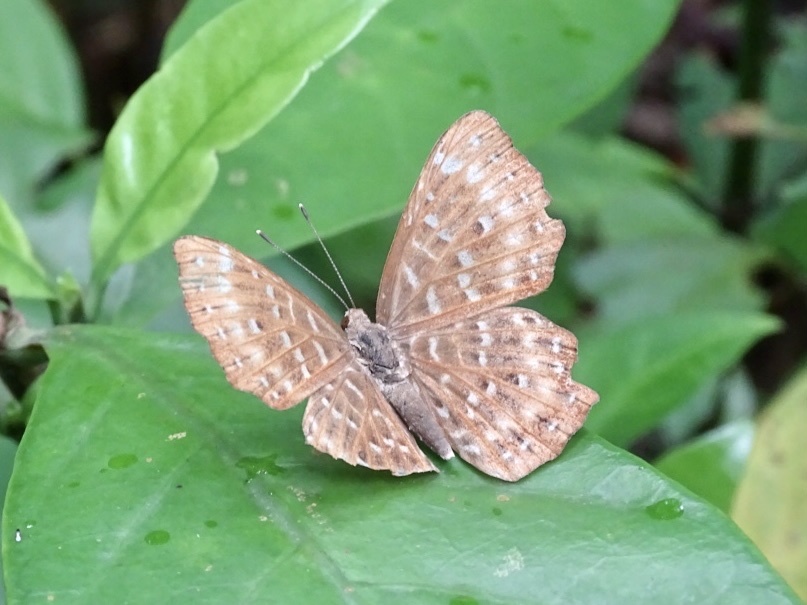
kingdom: Animalia
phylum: Arthropoda
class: Insecta
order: Lepidoptera
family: Riodinidae
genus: Zemeros
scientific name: Zemeros flegyas
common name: Punchinello
